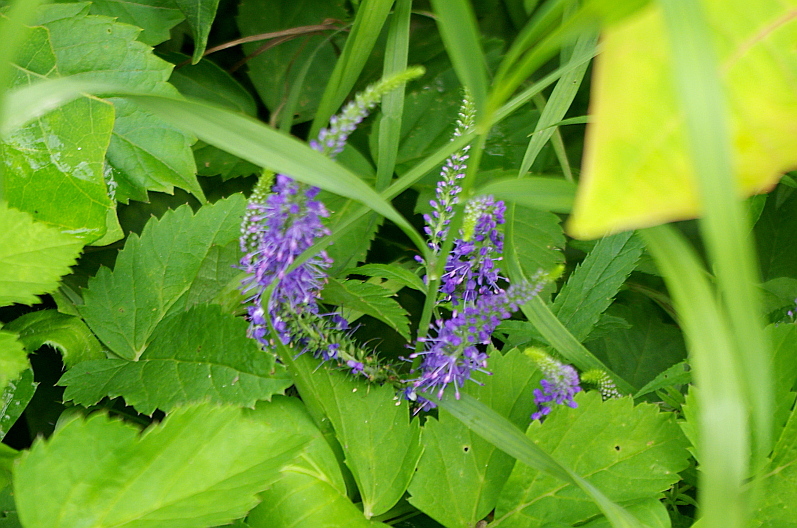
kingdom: Plantae
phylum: Tracheophyta
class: Magnoliopsida
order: Lamiales
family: Plantaginaceae
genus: Veronica
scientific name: Veronica longifolia
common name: Garden speedwell
